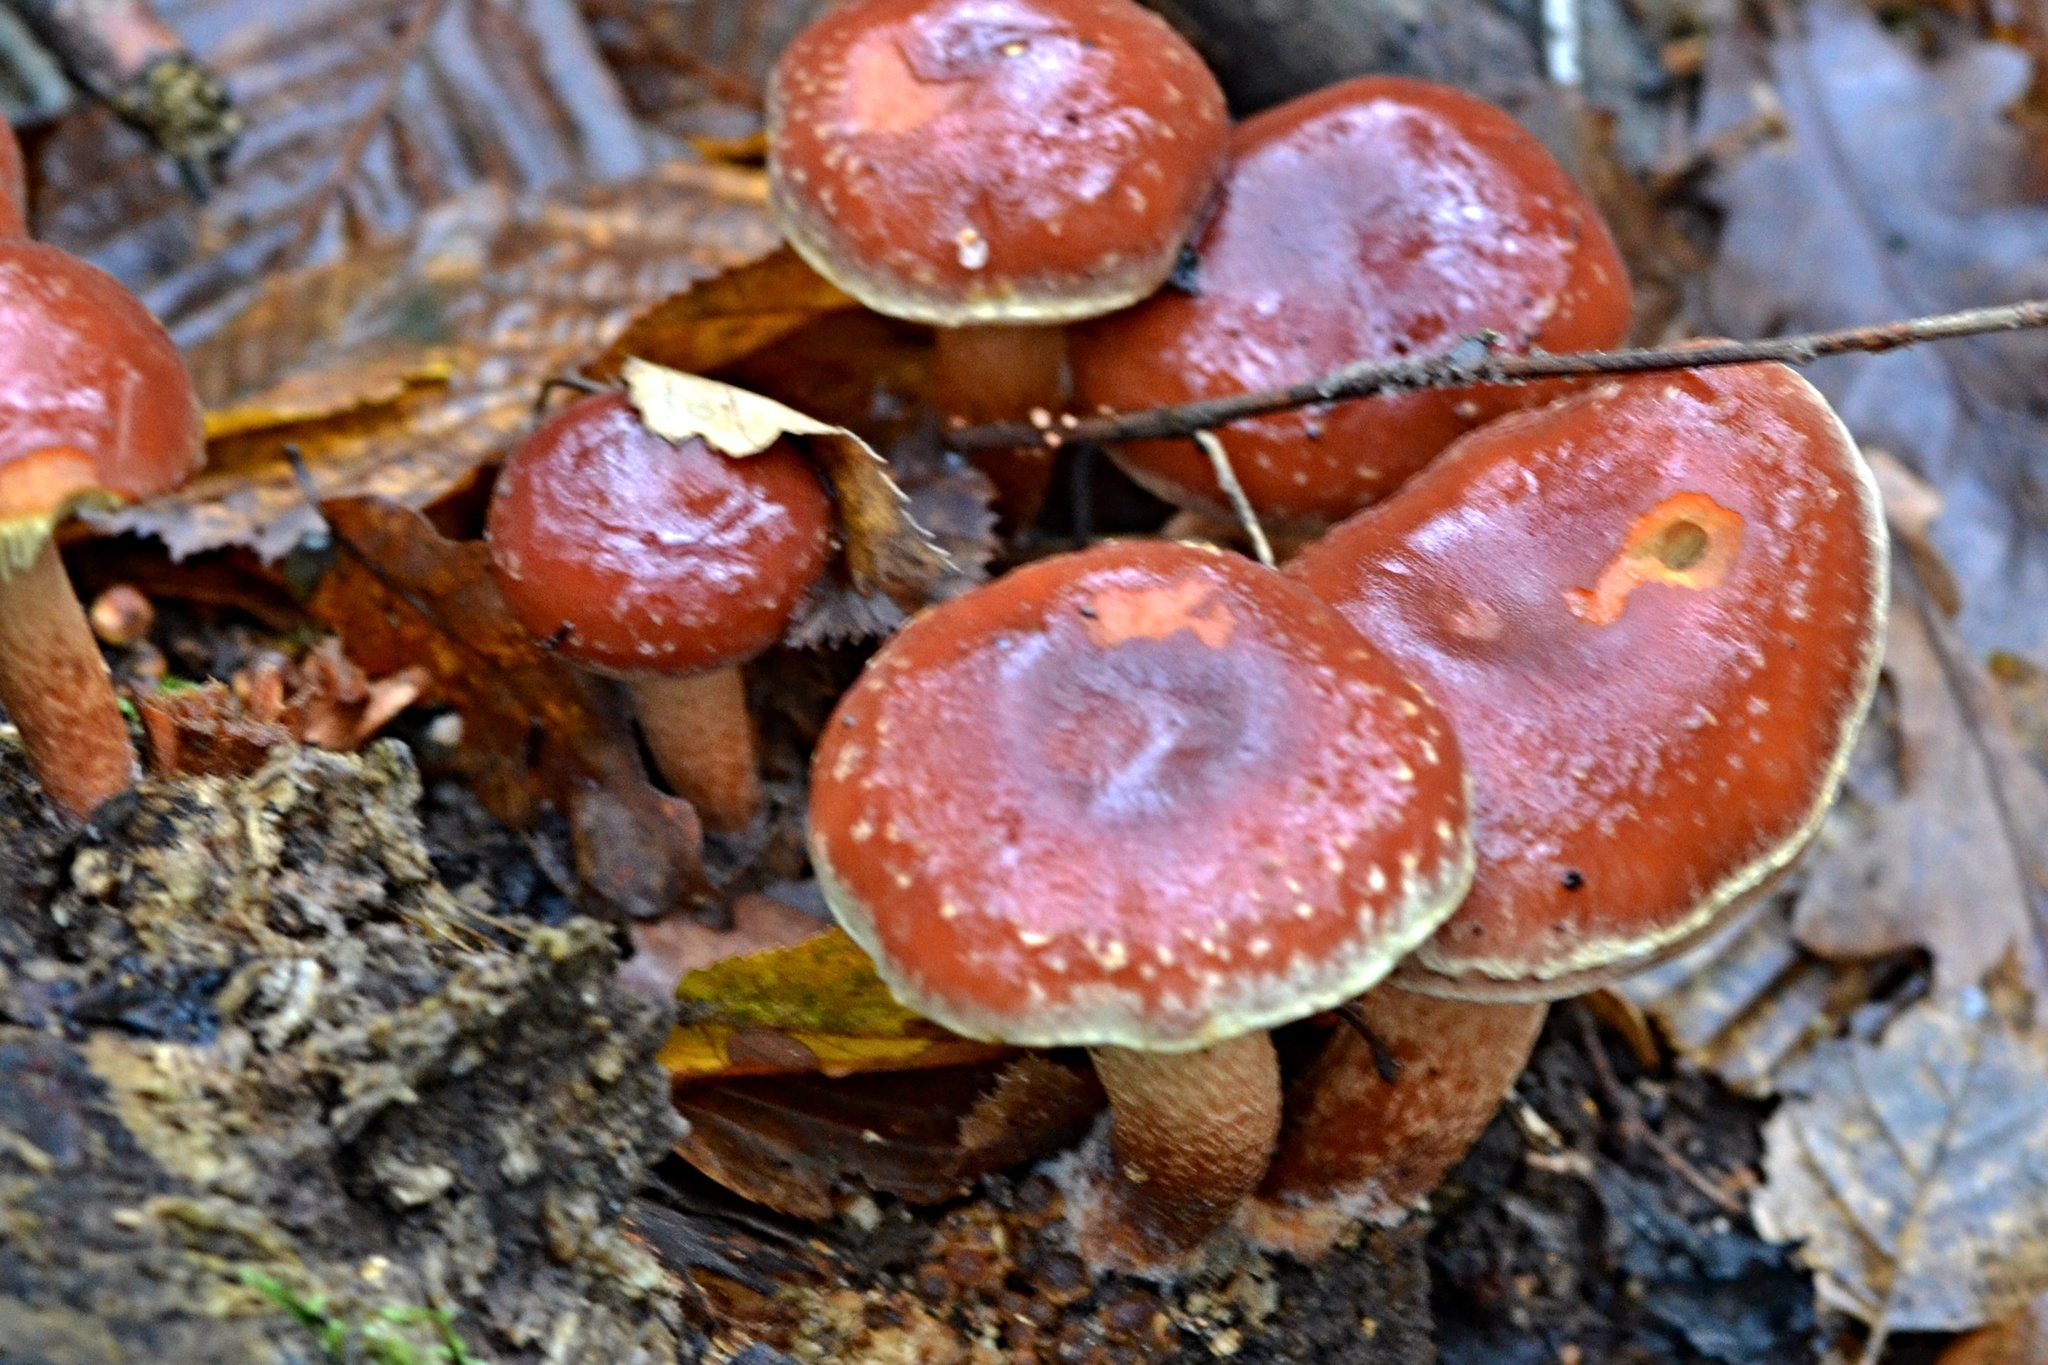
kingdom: Fungi
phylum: Basidiomycota
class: Agaricomycetes
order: Agaricales
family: Strophariaceae
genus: Hypholoma
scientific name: Hypholoma lateritium
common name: Brick caps
